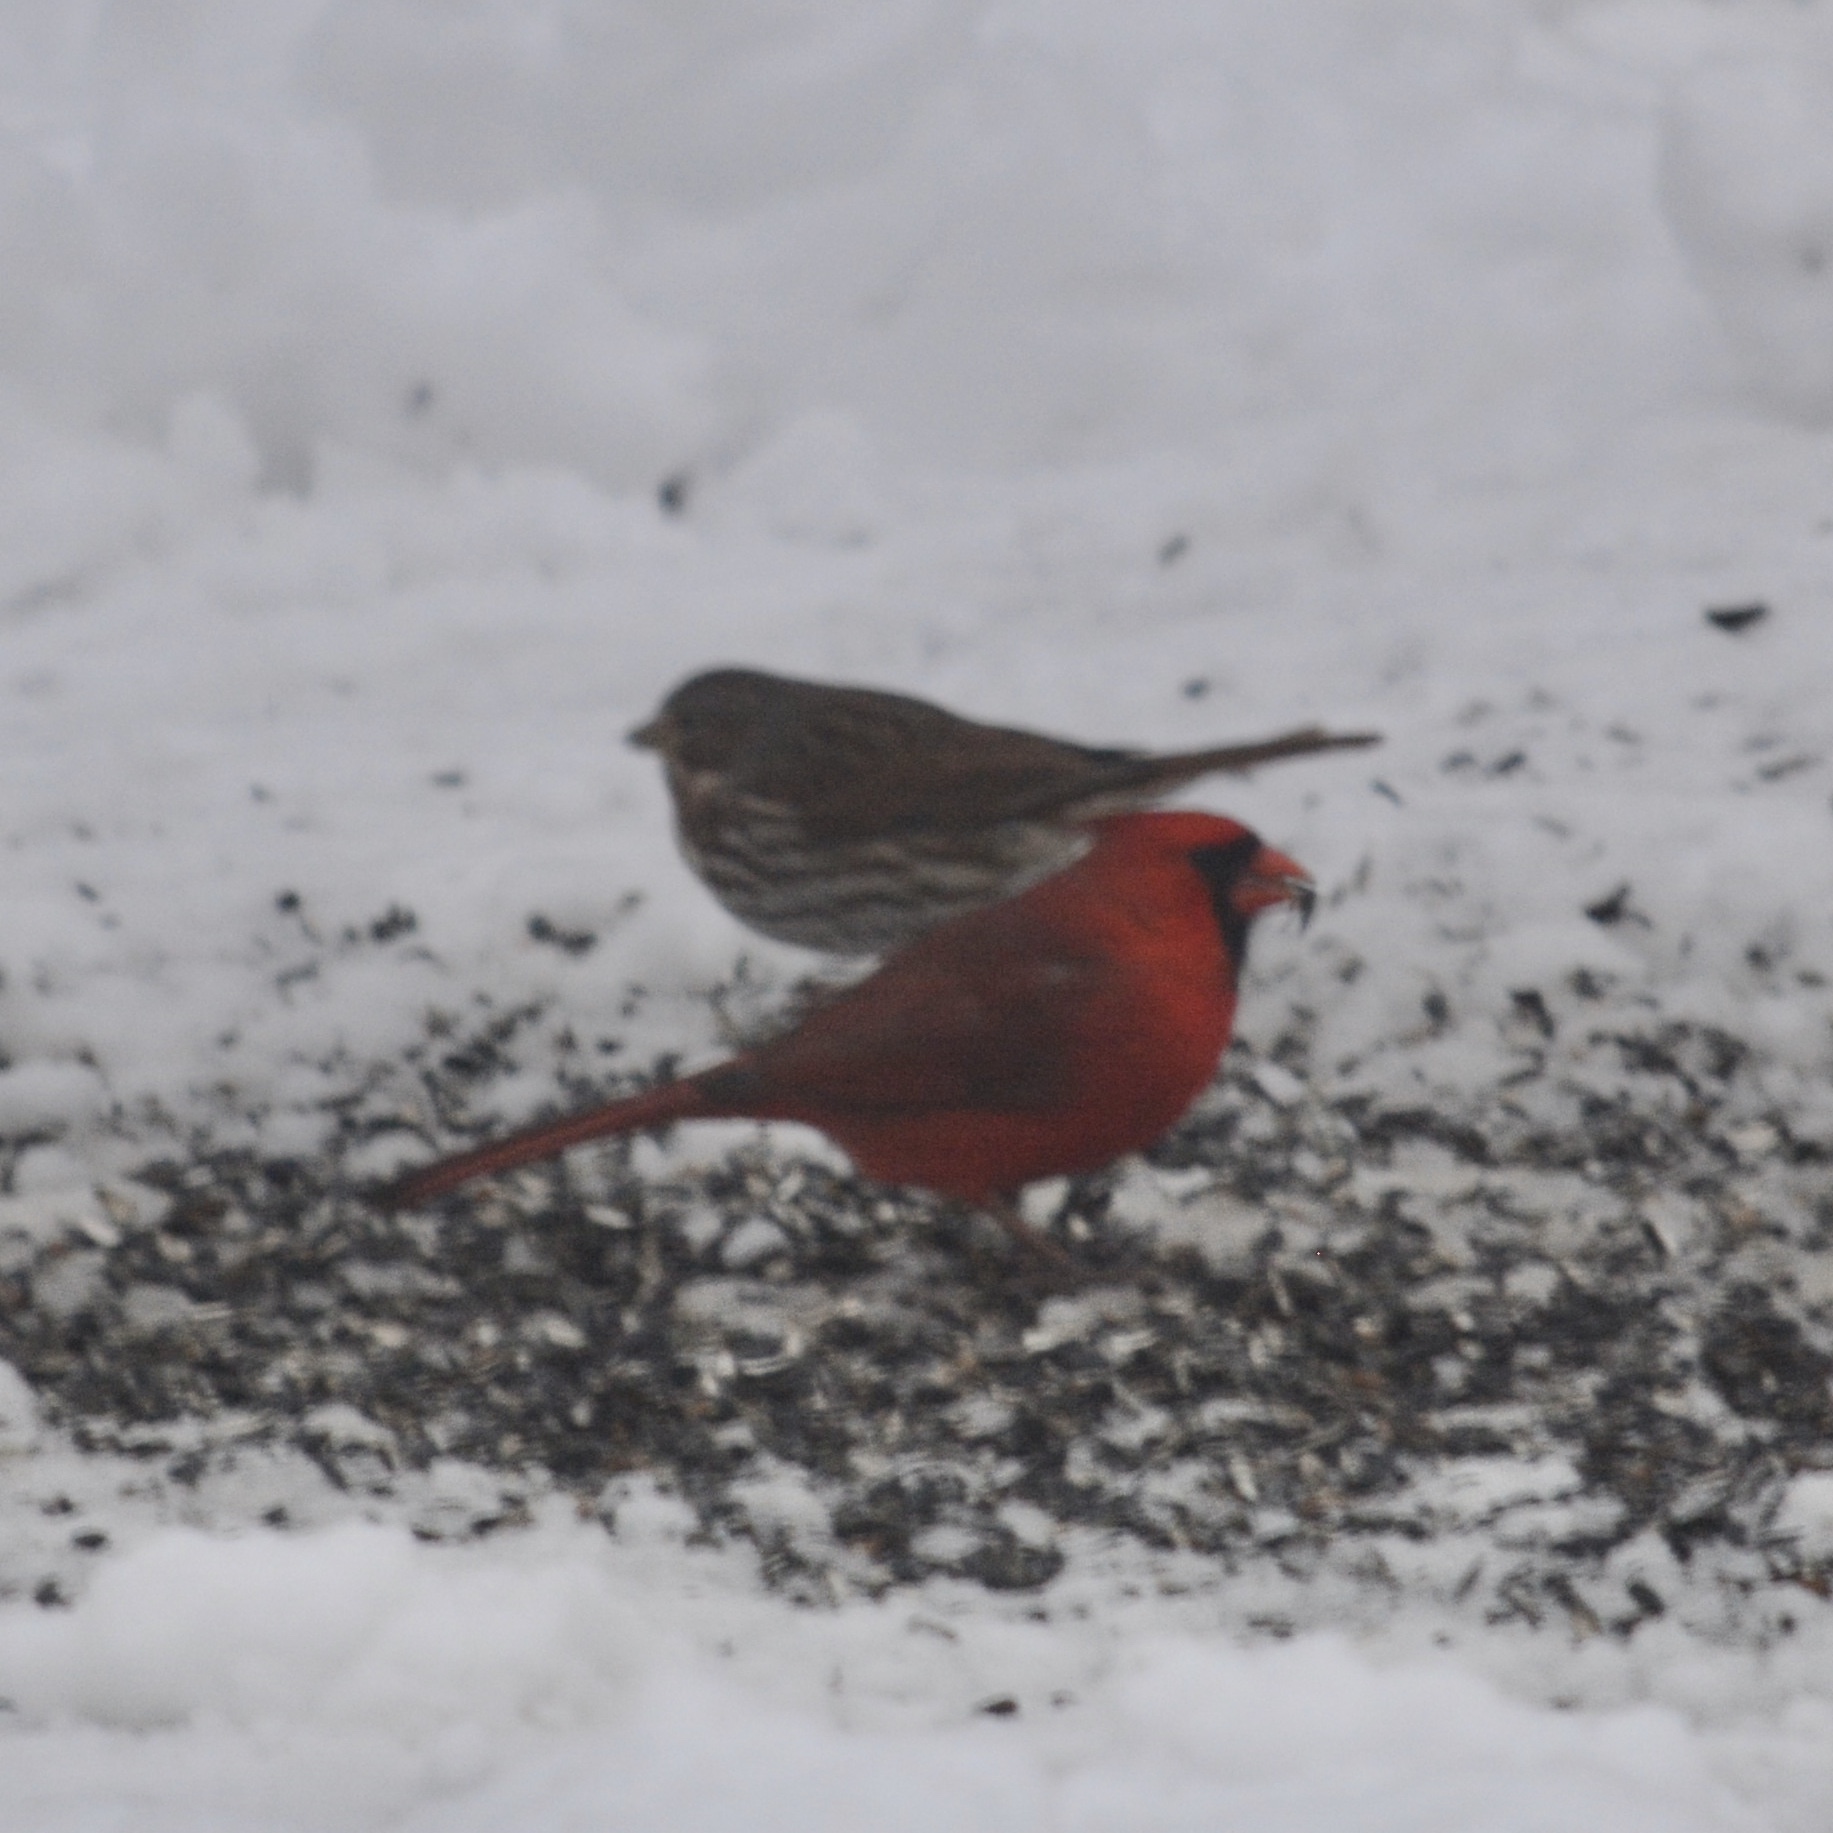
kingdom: Animalia
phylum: Chordata
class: Aves
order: Passeriformes
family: Passerellidae
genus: Passerella
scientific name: Passerella iliaca
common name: Fox sparrow
